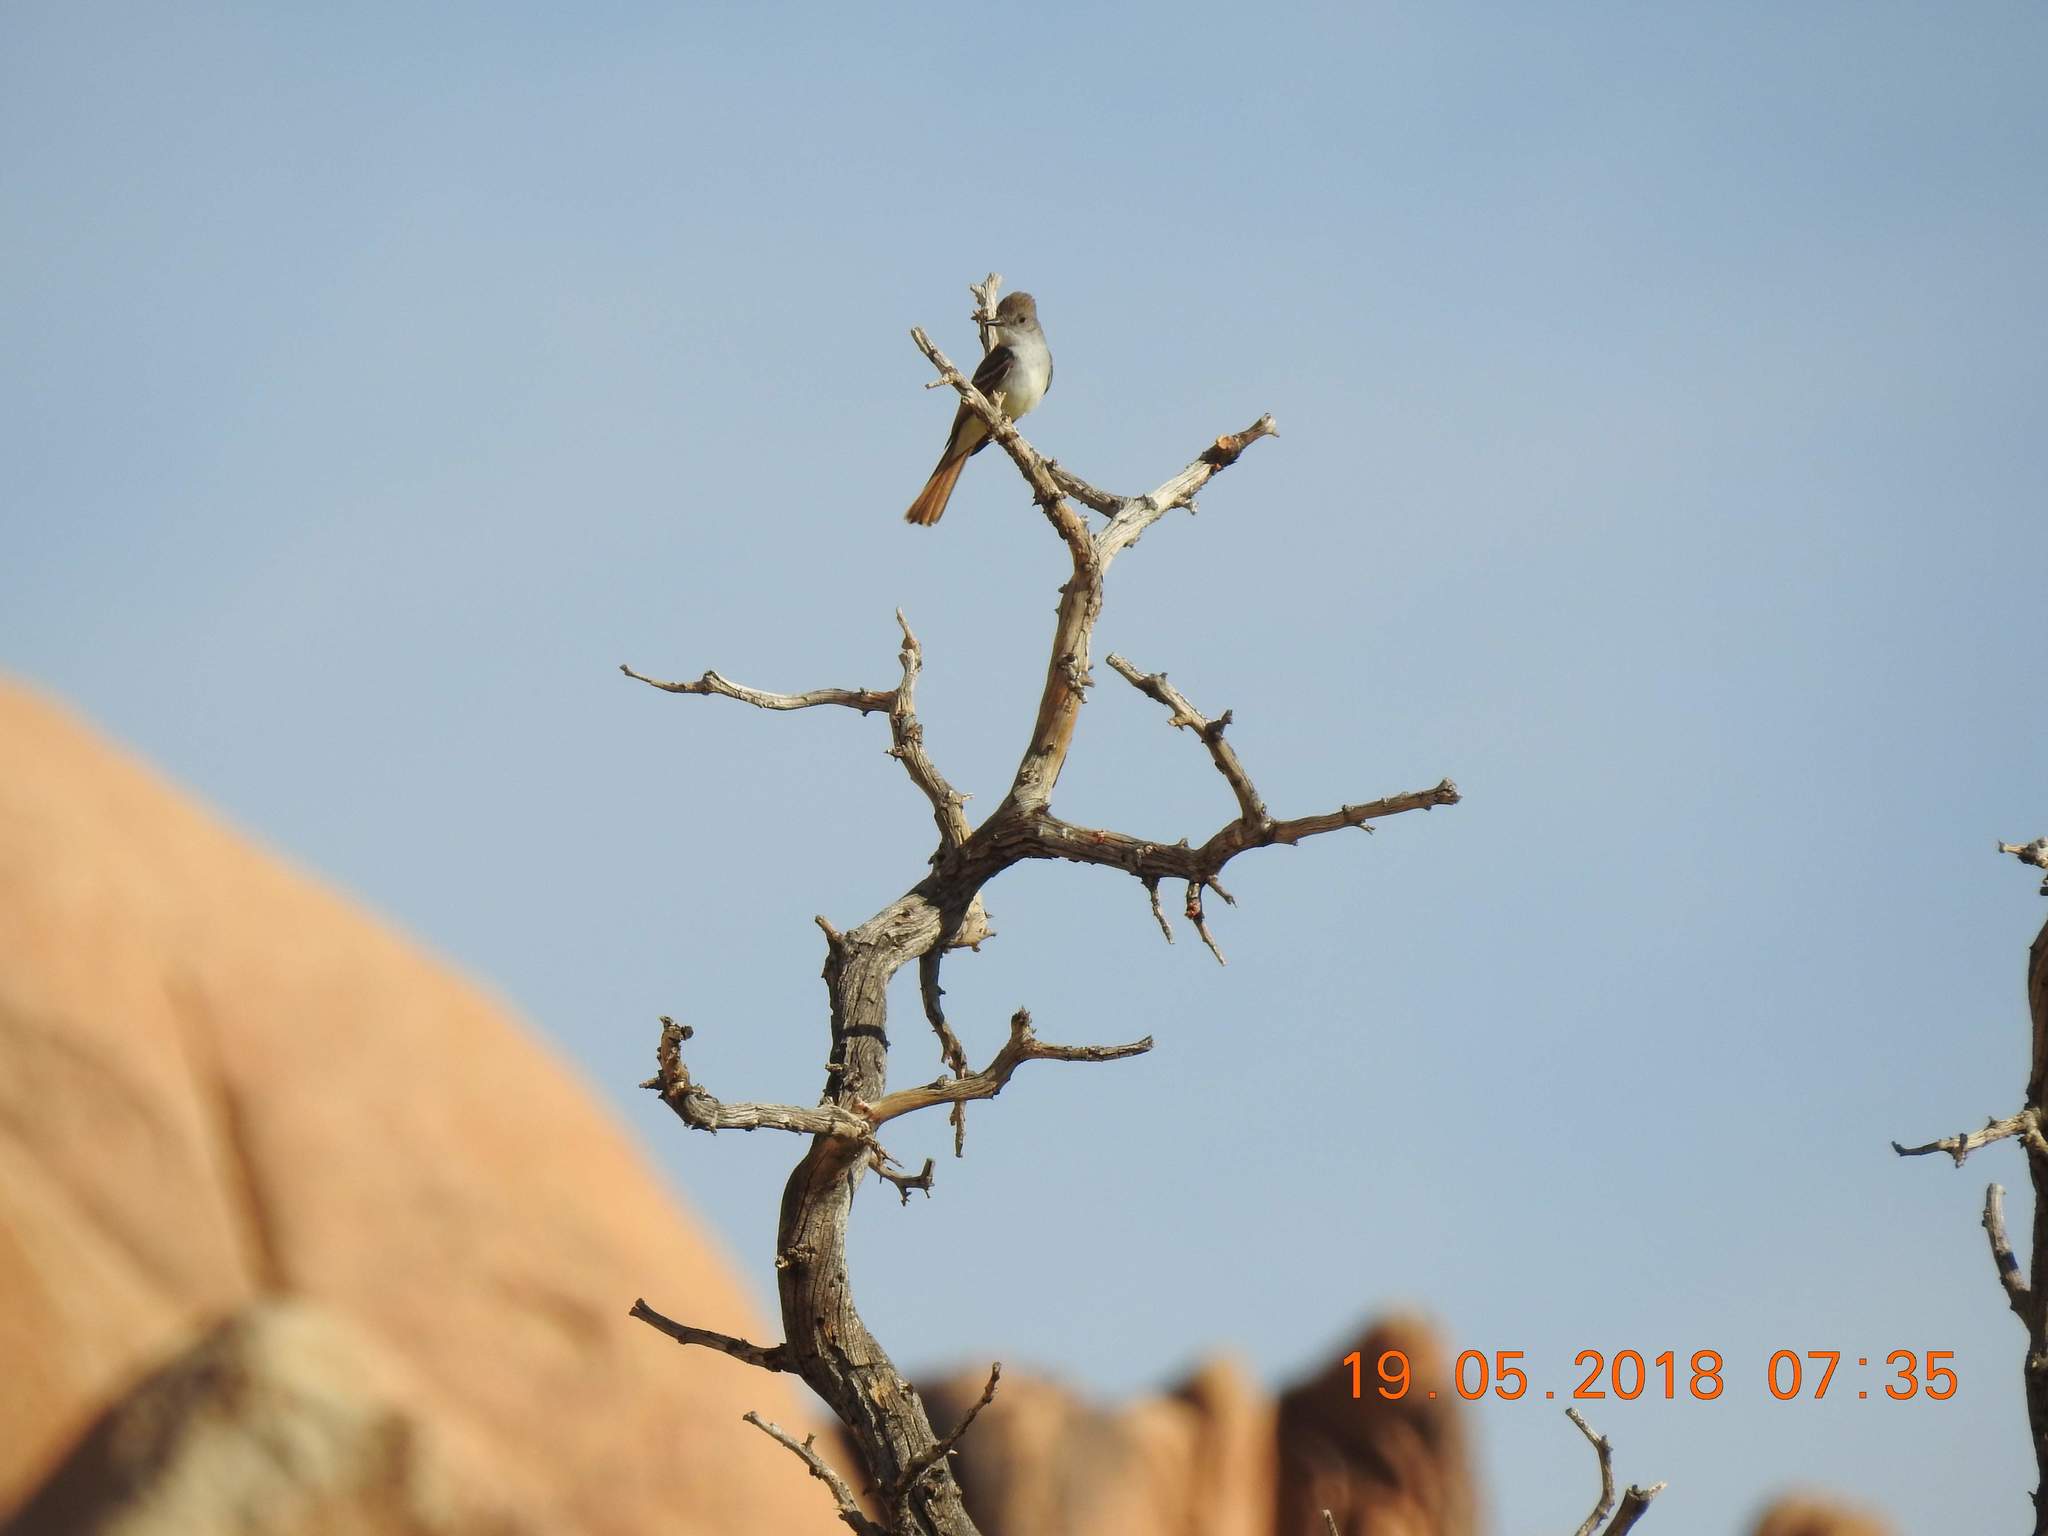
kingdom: Animalia
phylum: Chordata
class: Aves
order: Passeriformes
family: Tyrannidae
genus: Myiarchus
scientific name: Myiarchus cinerascens
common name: Ash-throated flycatcher
